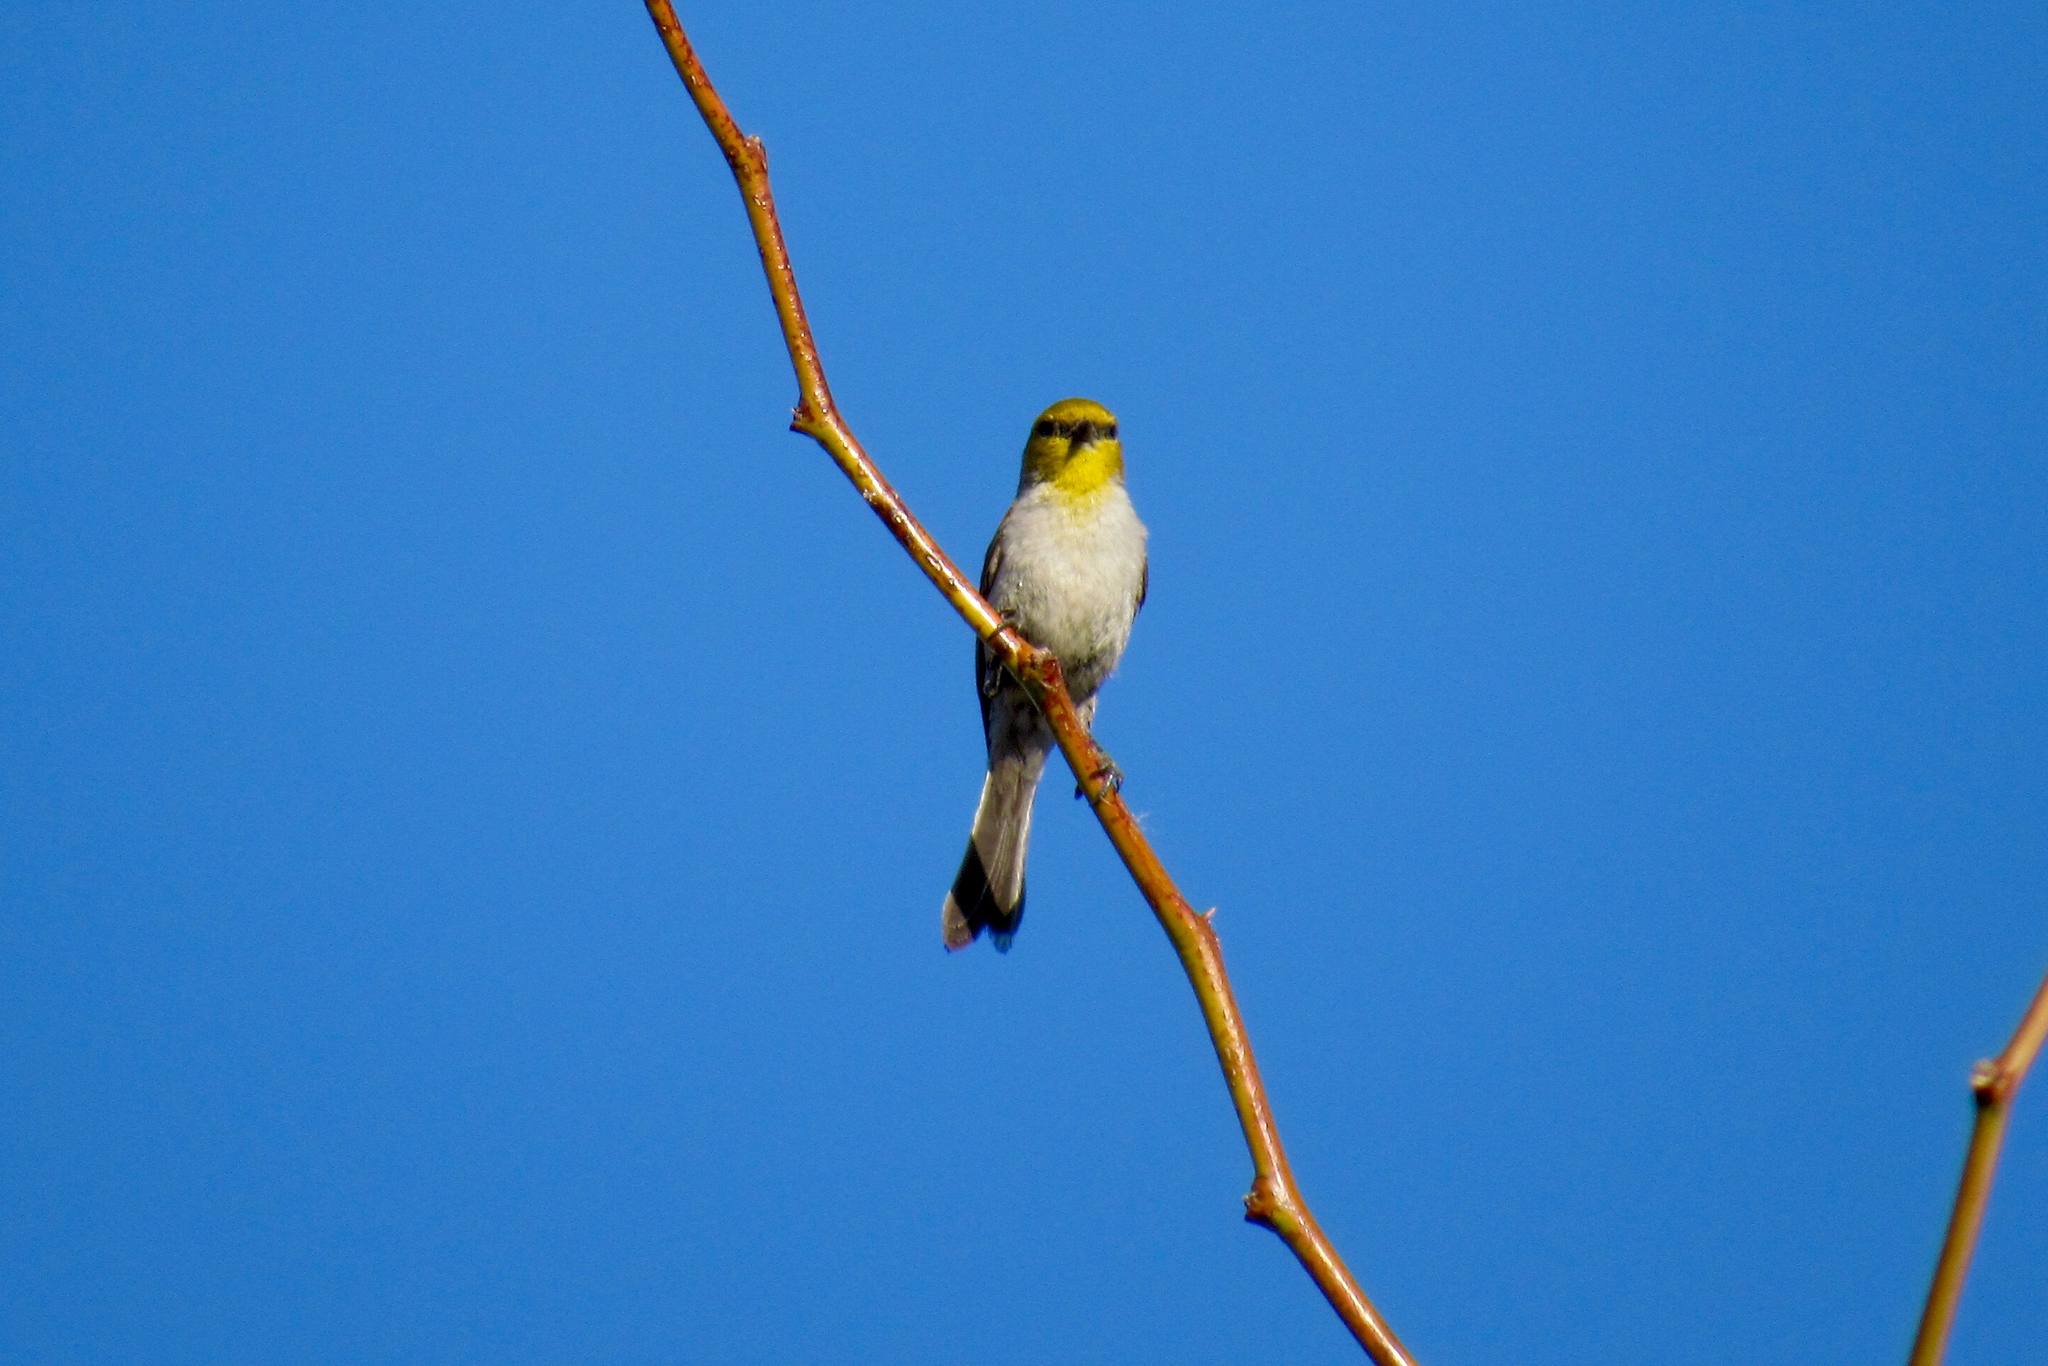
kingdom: Animalia
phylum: Chordata
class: Aves
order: Passeriformes
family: Remizidae
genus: Auriparus
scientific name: Auriparus flaviceps
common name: Verdin
